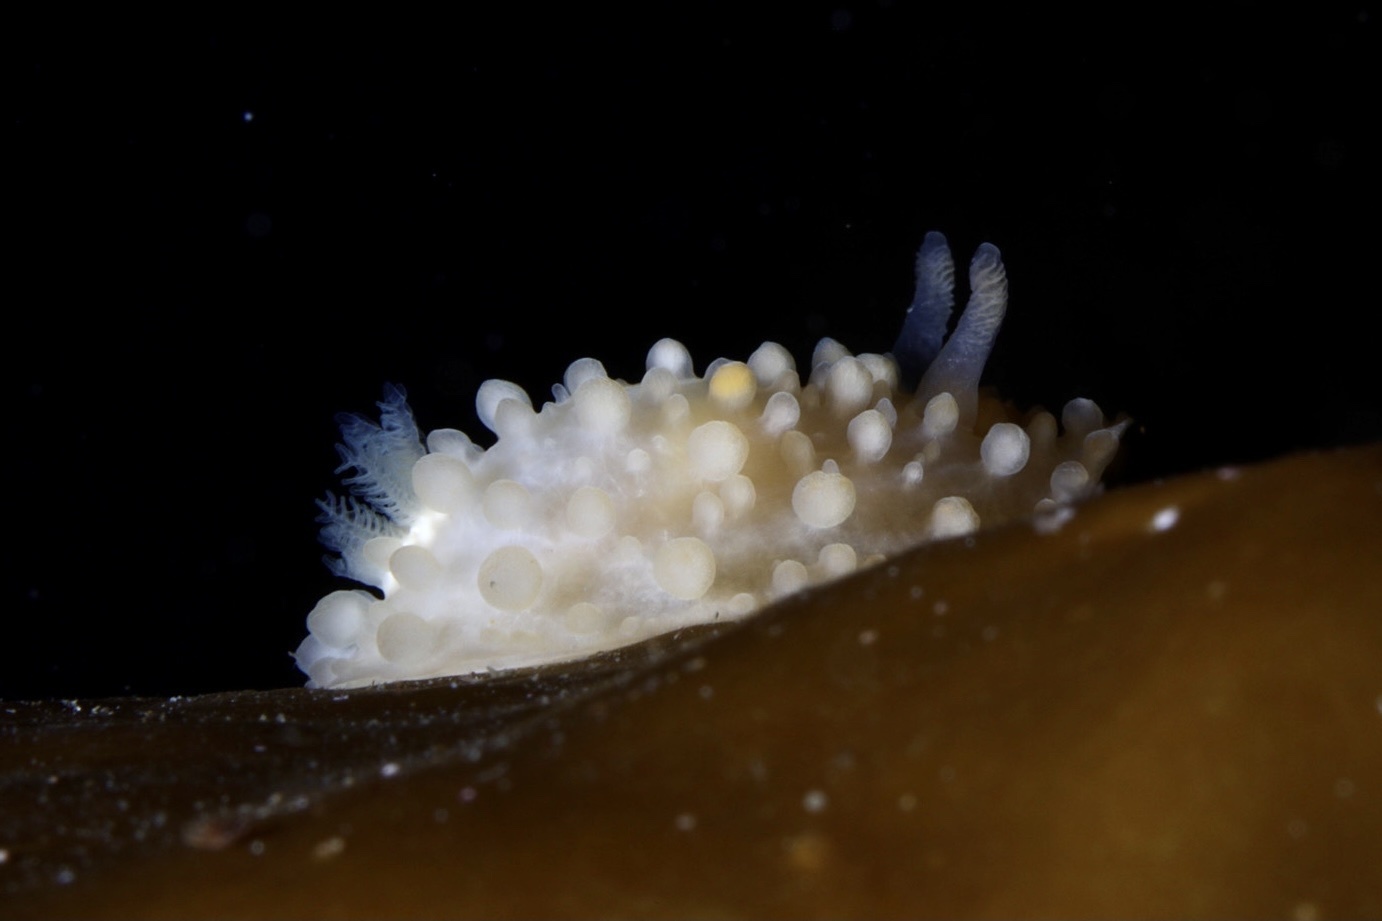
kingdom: Animalia
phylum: Mollusca
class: Gastropoda
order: Nudibranchia
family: Onchidorididae
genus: Adalaria
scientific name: Adalaria proxima
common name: False doris
